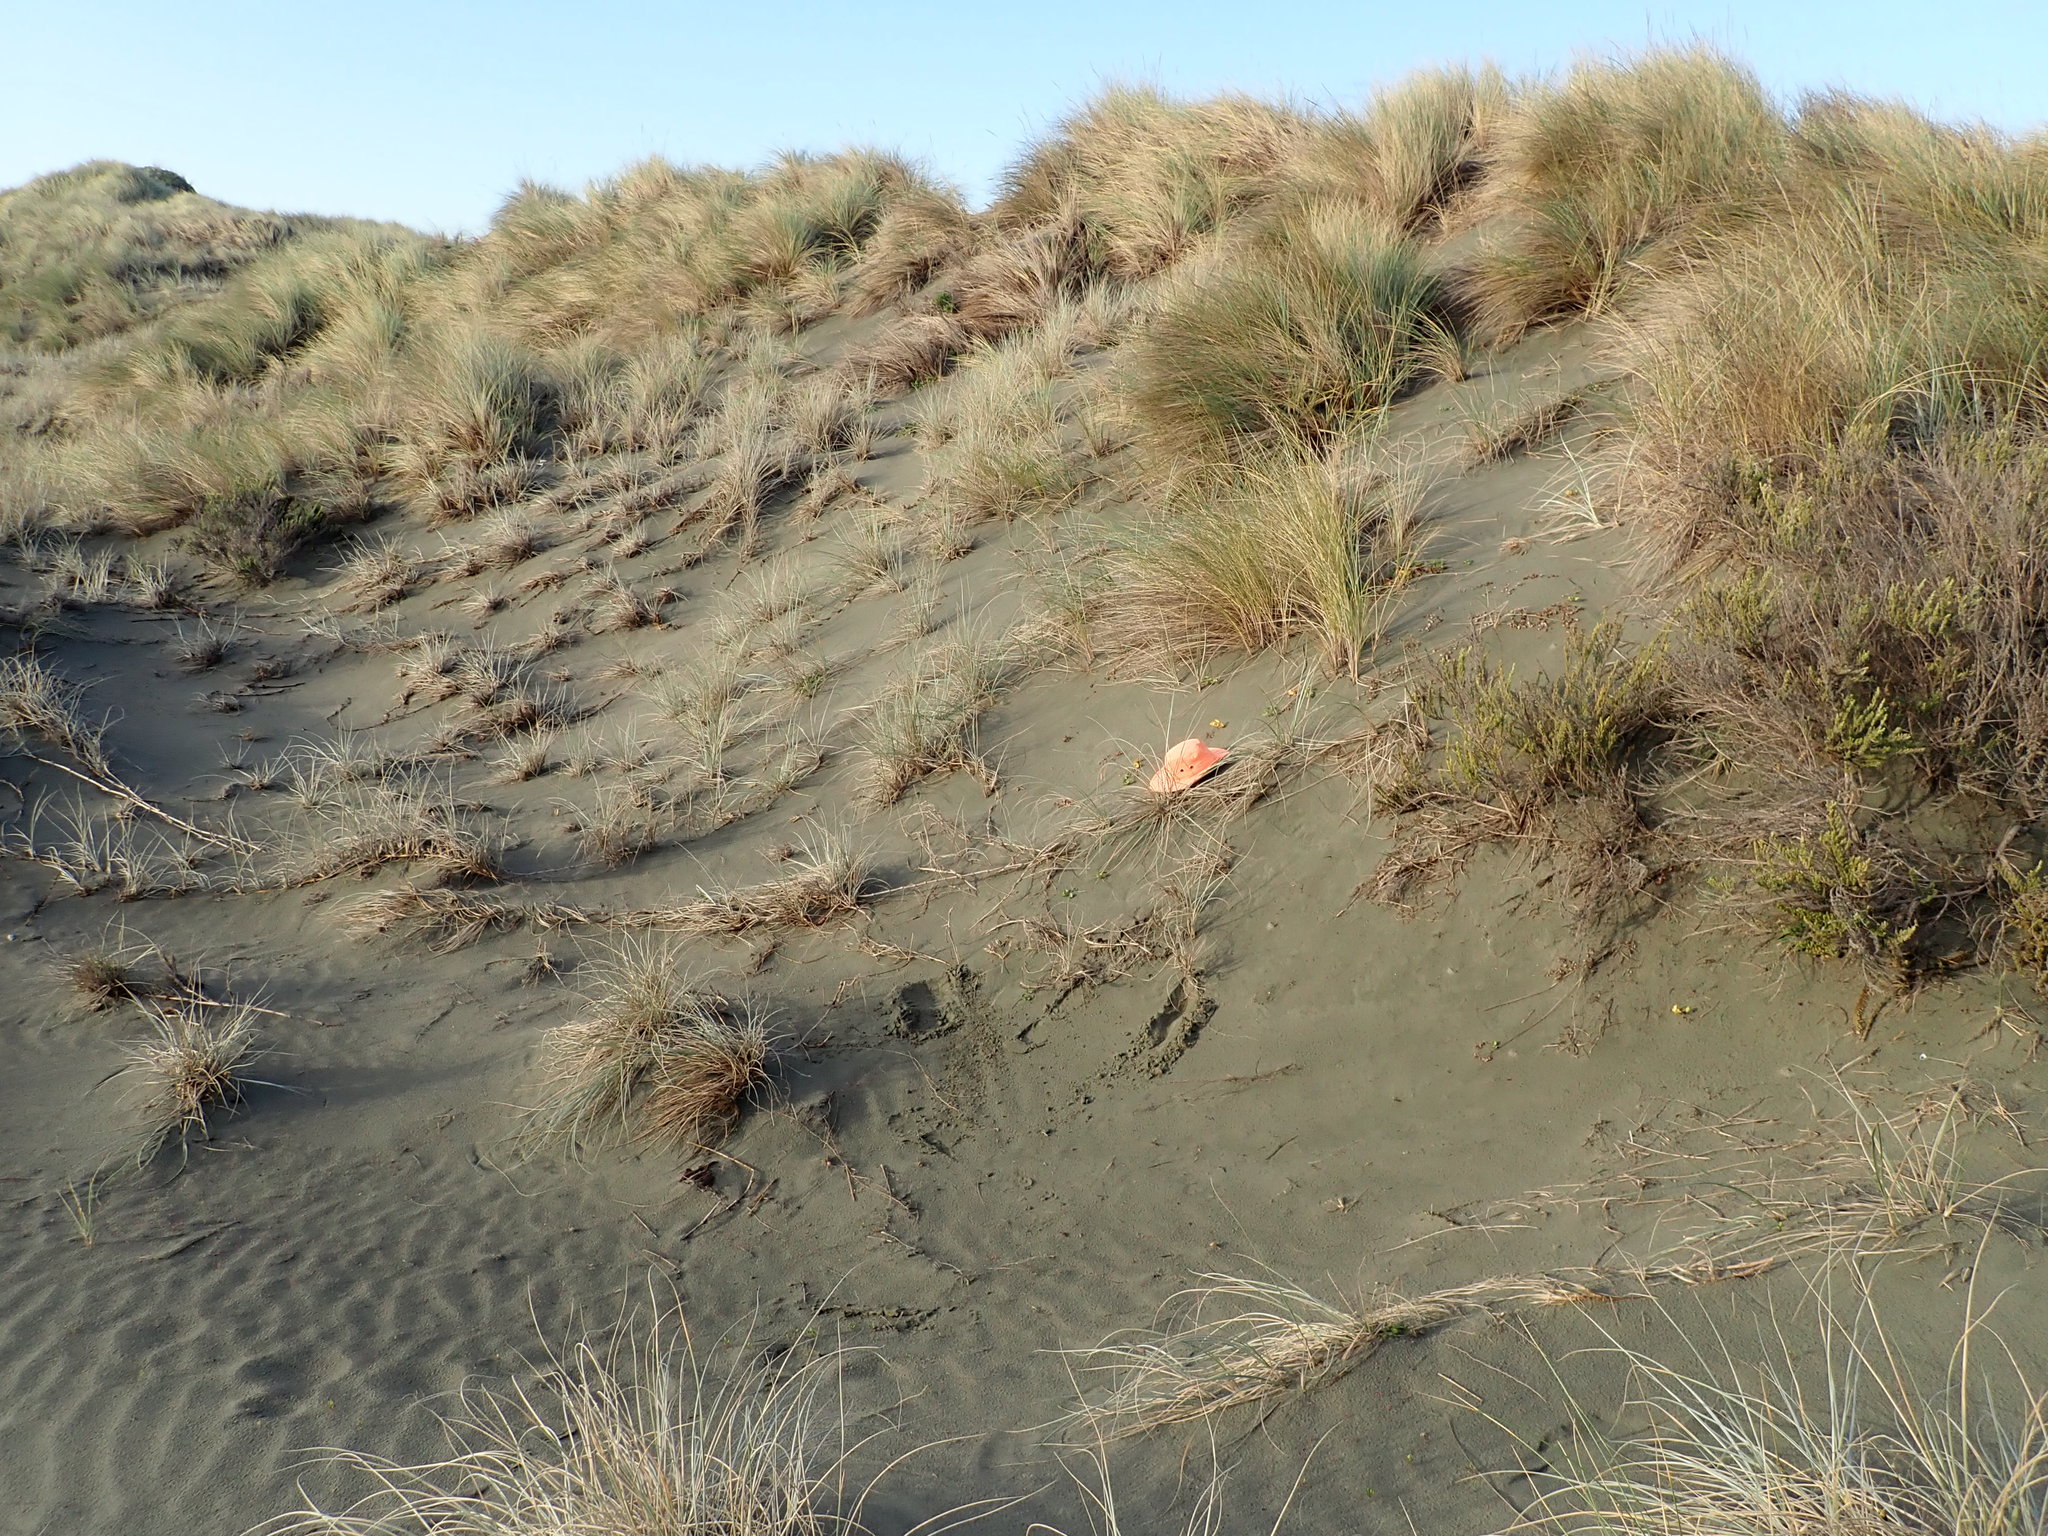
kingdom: Plantae
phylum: Tracheophyta
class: Magnoliopsida
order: Solanales
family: Convolvulaceae
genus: Calystegia
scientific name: Calystegia soldanella
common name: Sea bindweed
